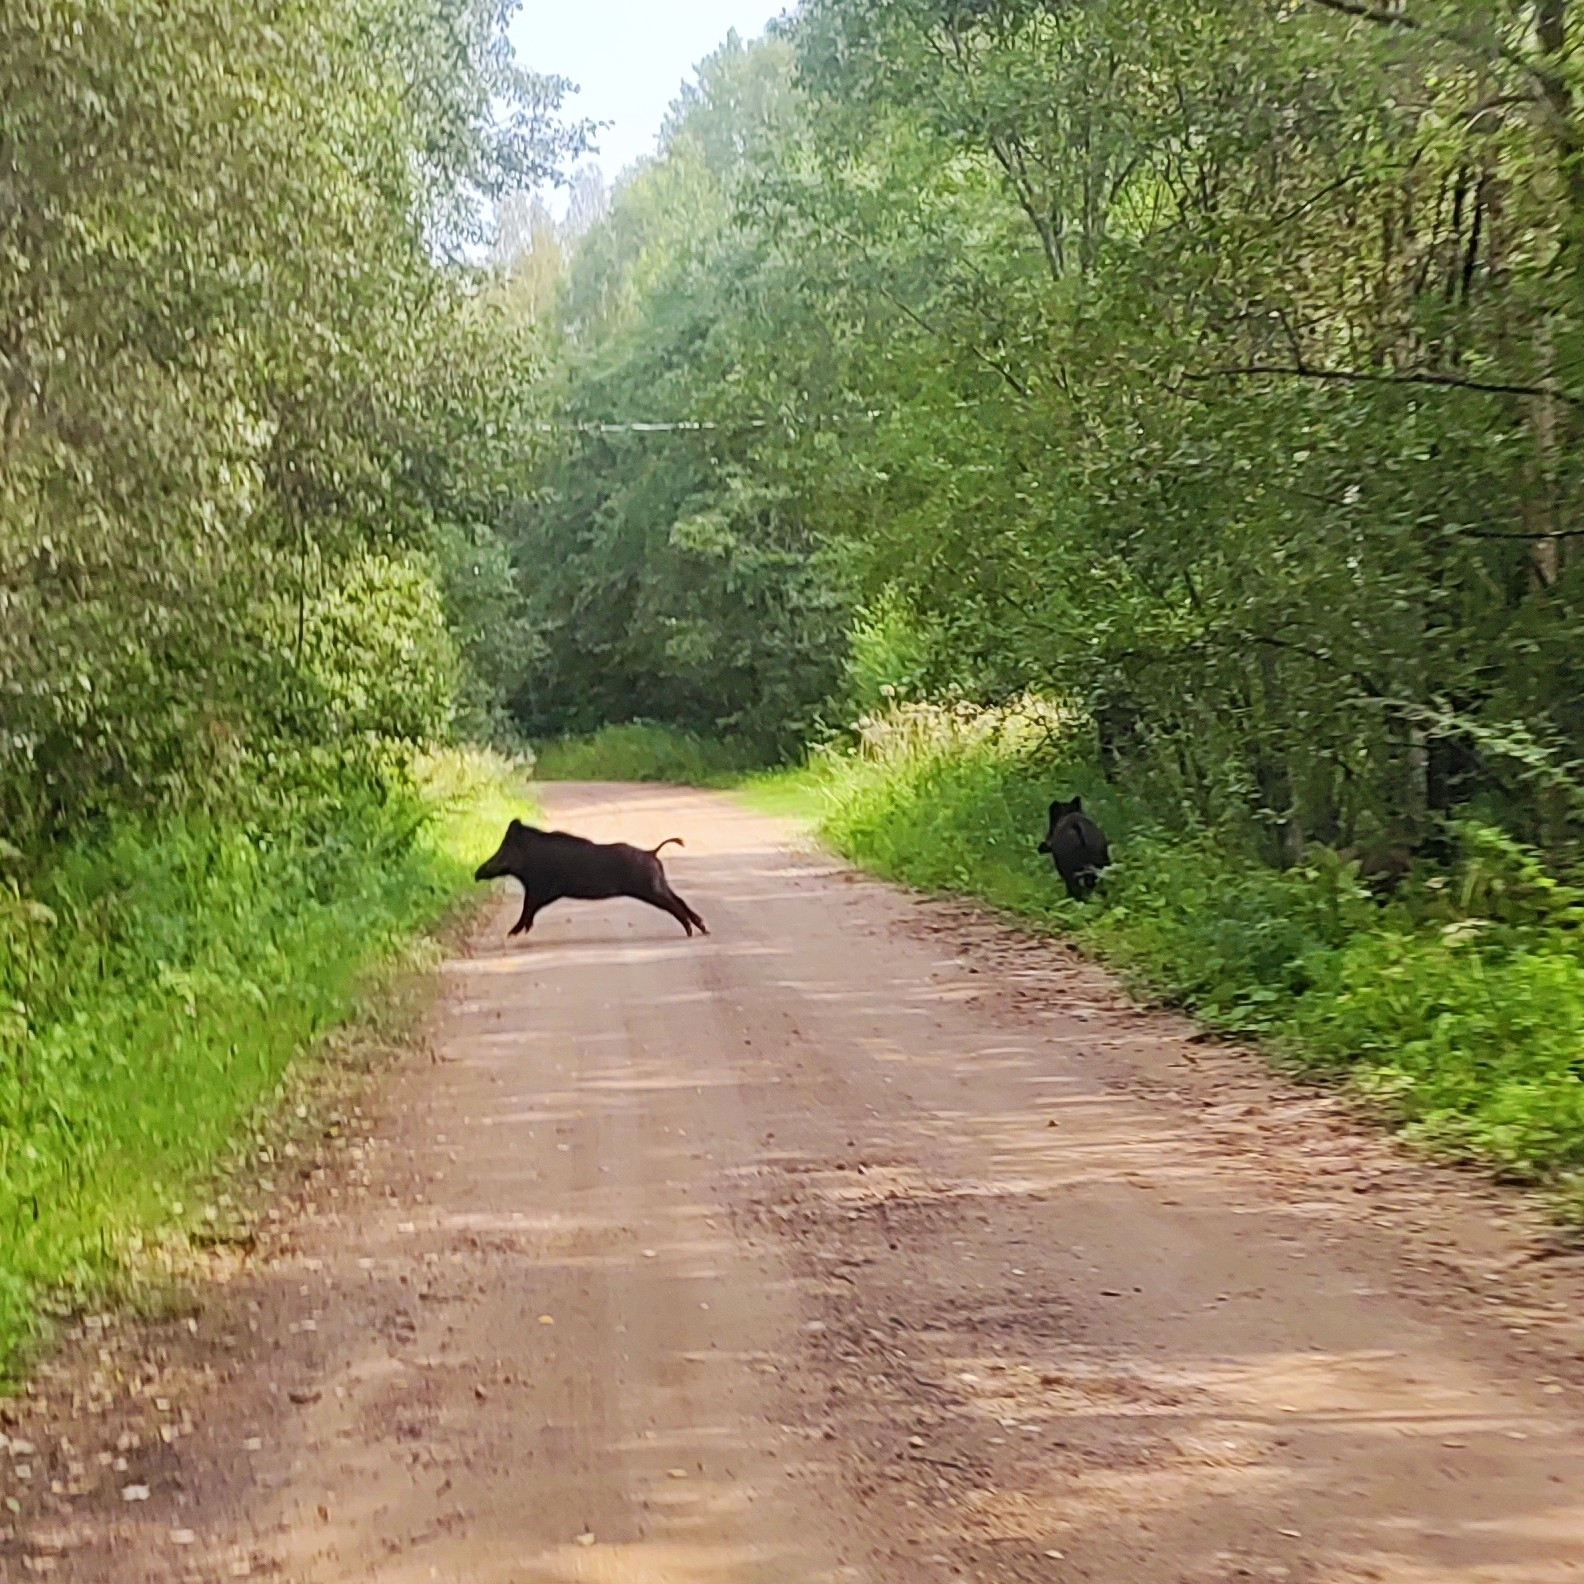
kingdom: Animalia
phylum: Chordata
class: Mammalia
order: Artiodactyla
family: Suidae
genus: Sus
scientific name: Sus scrofa
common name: Wild boar
